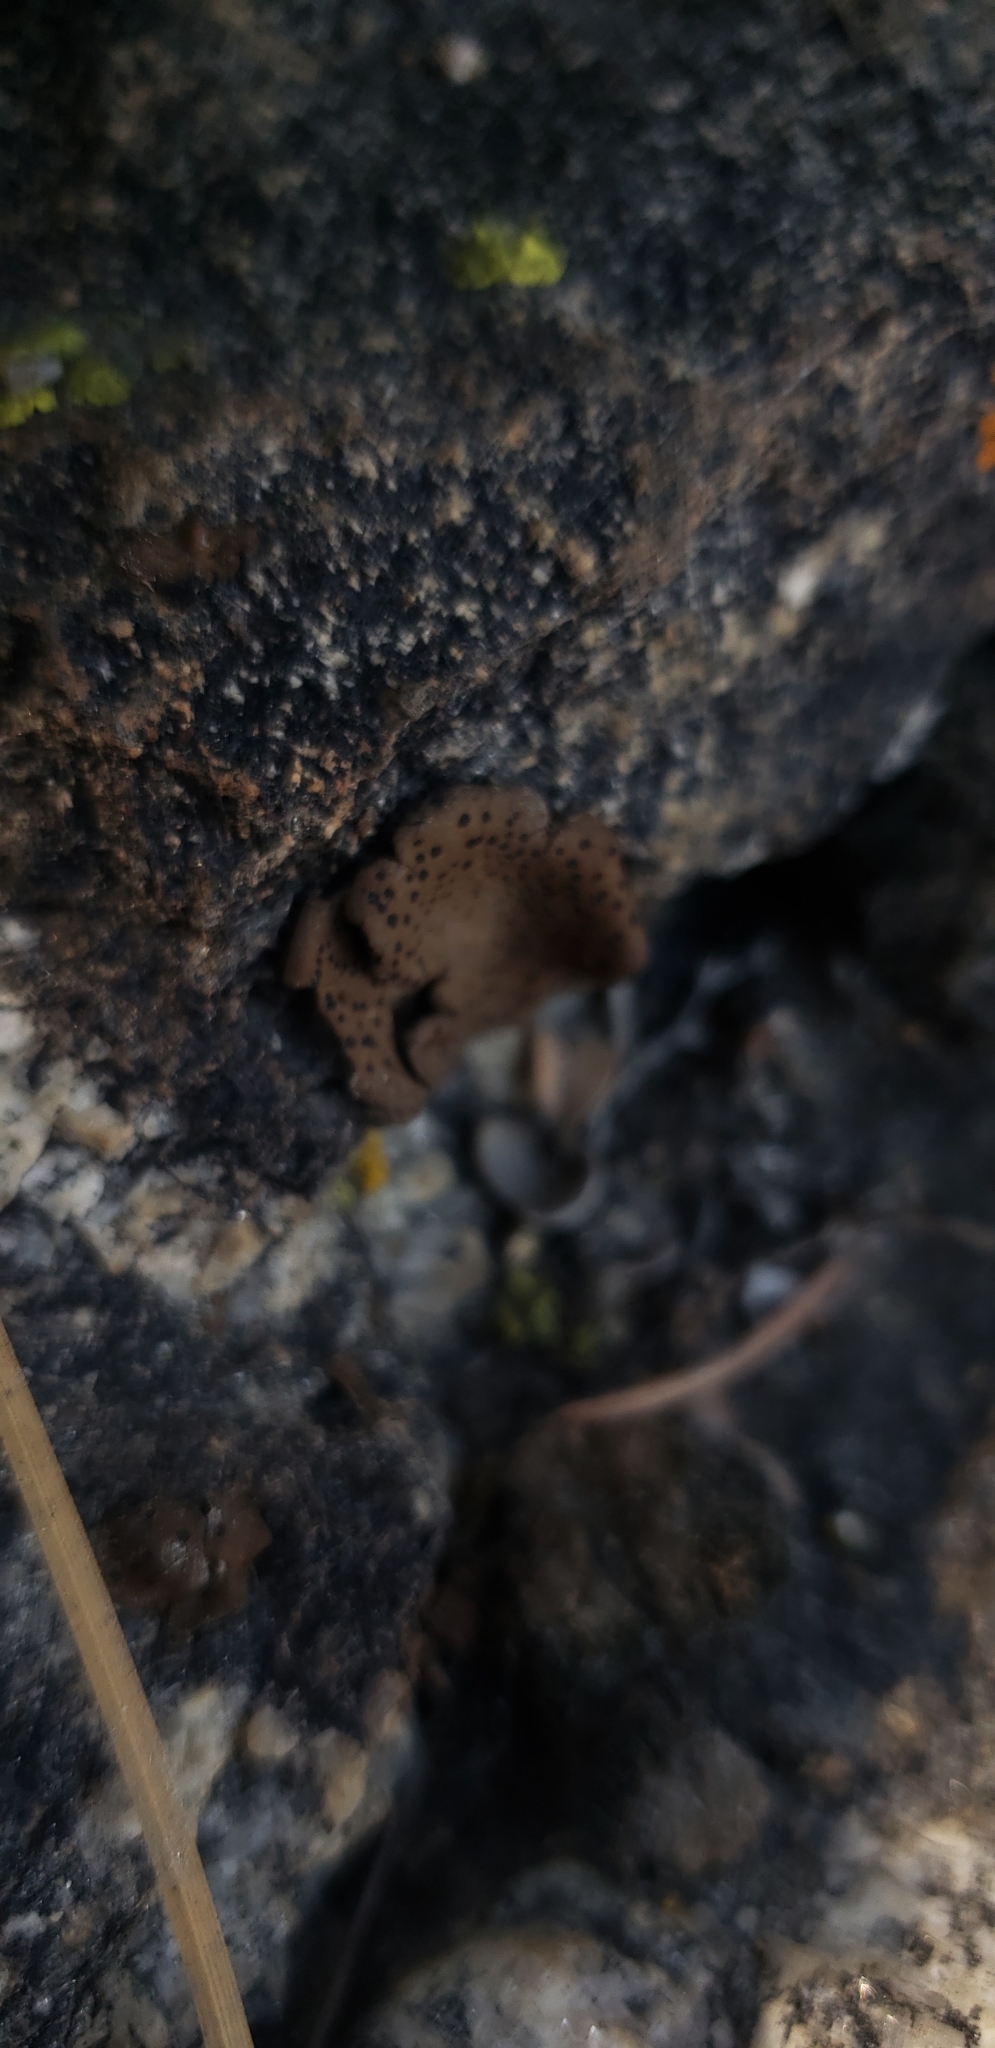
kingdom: Fungi
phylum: Ascomycota
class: Lecanoromycetes
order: Umbilicariales
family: Umbilicariaceae
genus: Umbilicaria
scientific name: Umbilicaria phaea
